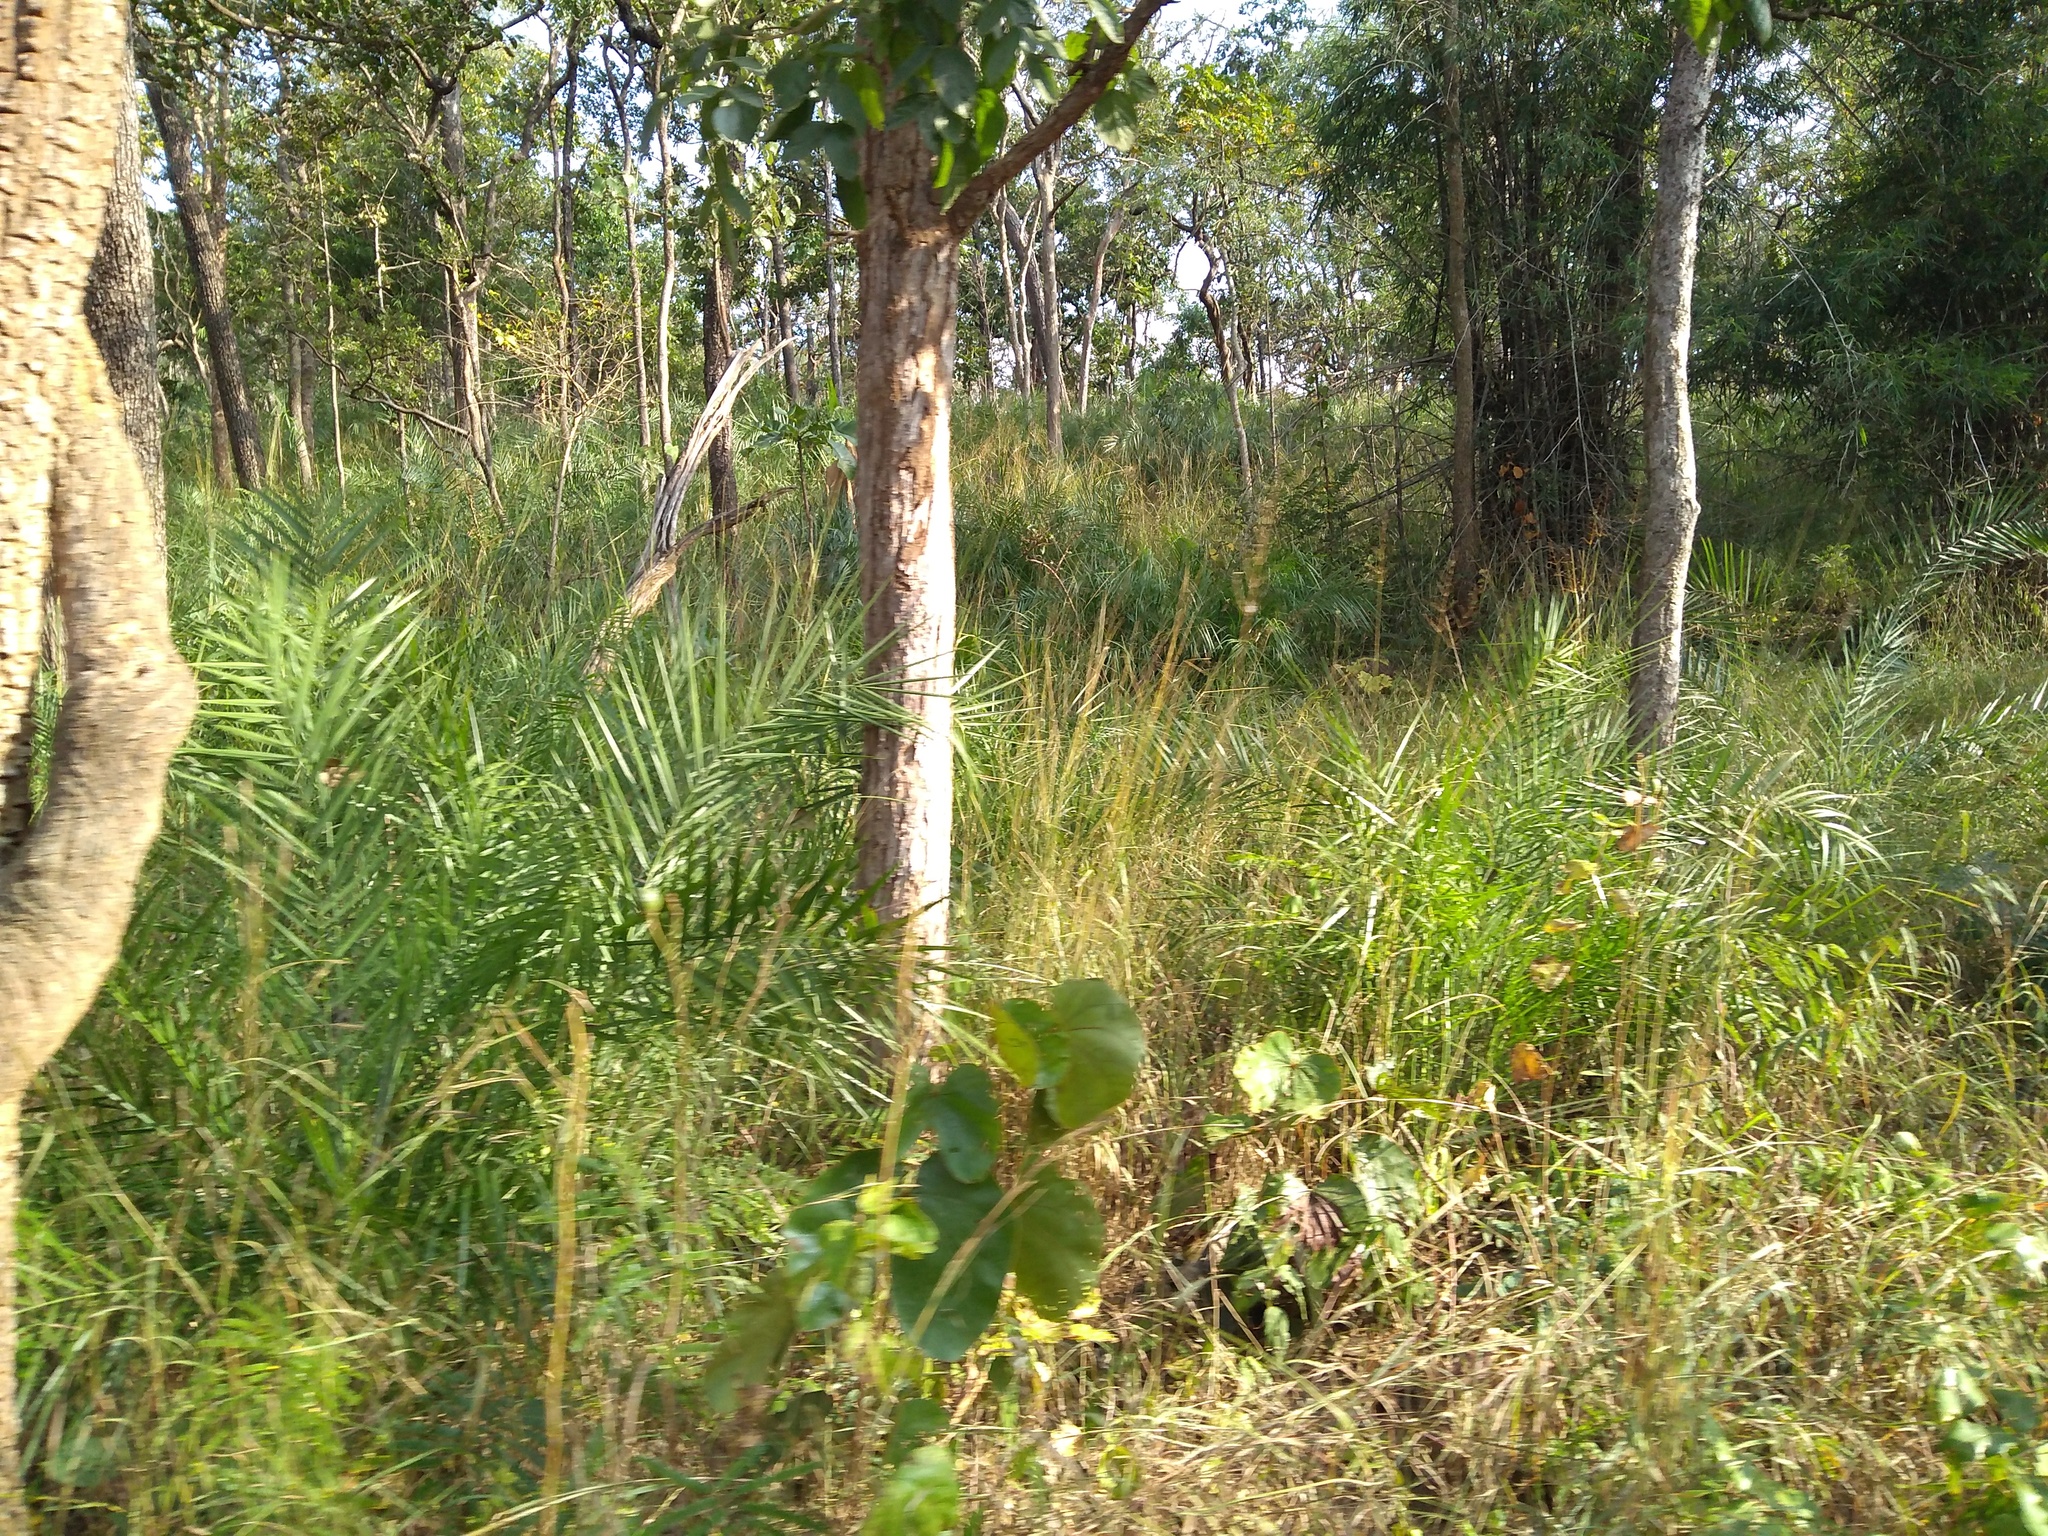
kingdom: Plantae
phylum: Tracheophyta
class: Liliopsida
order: Arecales
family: Arecaceae
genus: Phoenix
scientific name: Phoenix loureiroi
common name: Loureiro's palm
